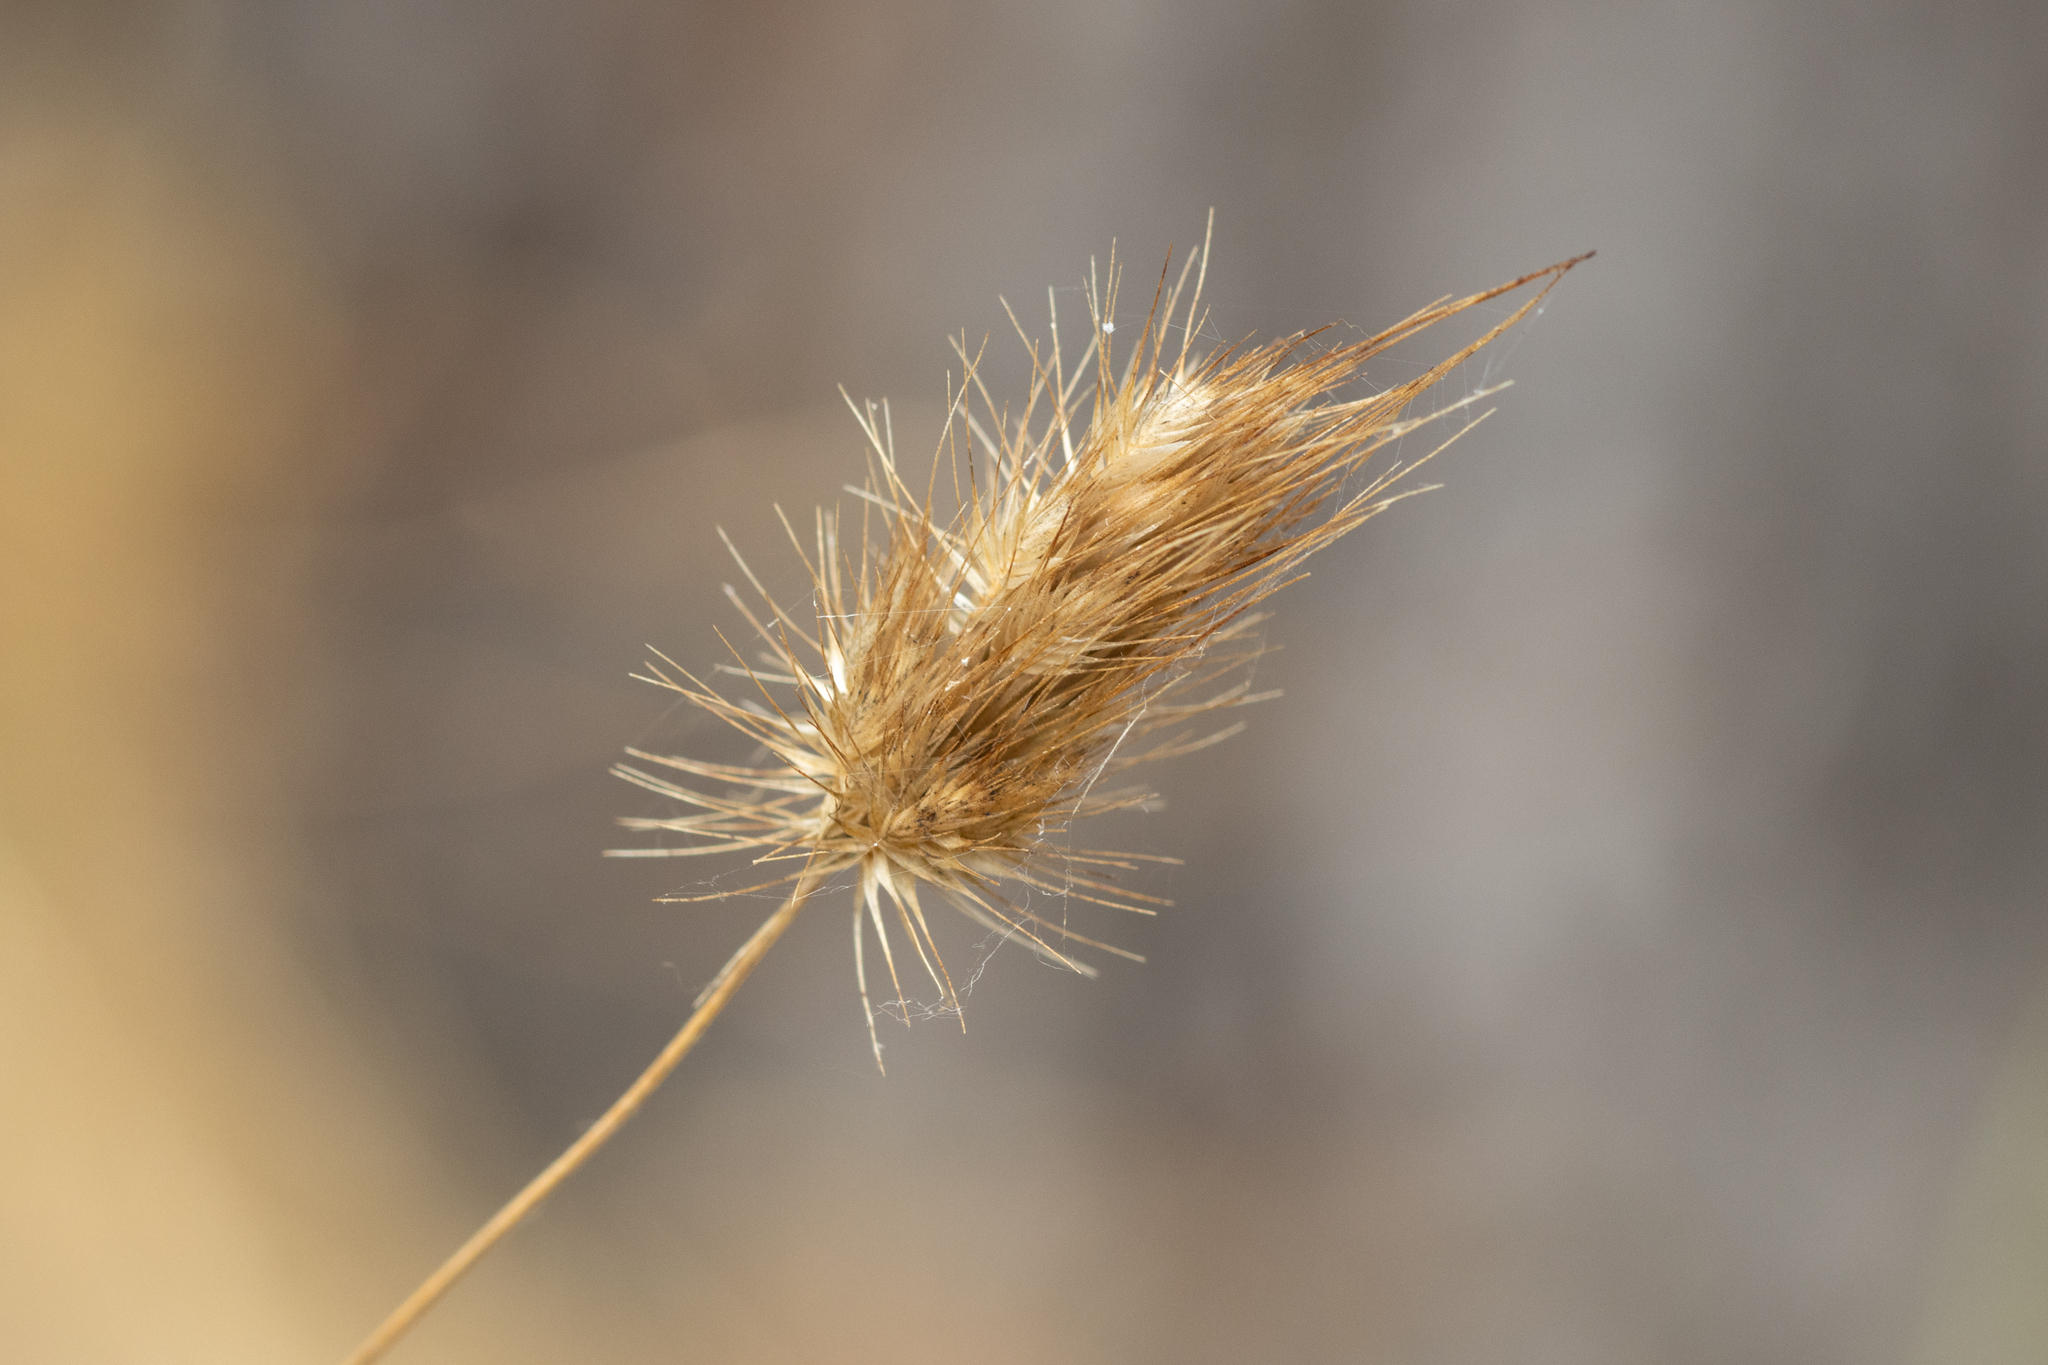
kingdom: Plantae
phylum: Tracheophyta
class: Liliopsida
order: Poales
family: Poaceae
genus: Cynosurus
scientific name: Cynosurus echinatus
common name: Rough dog's-tail
